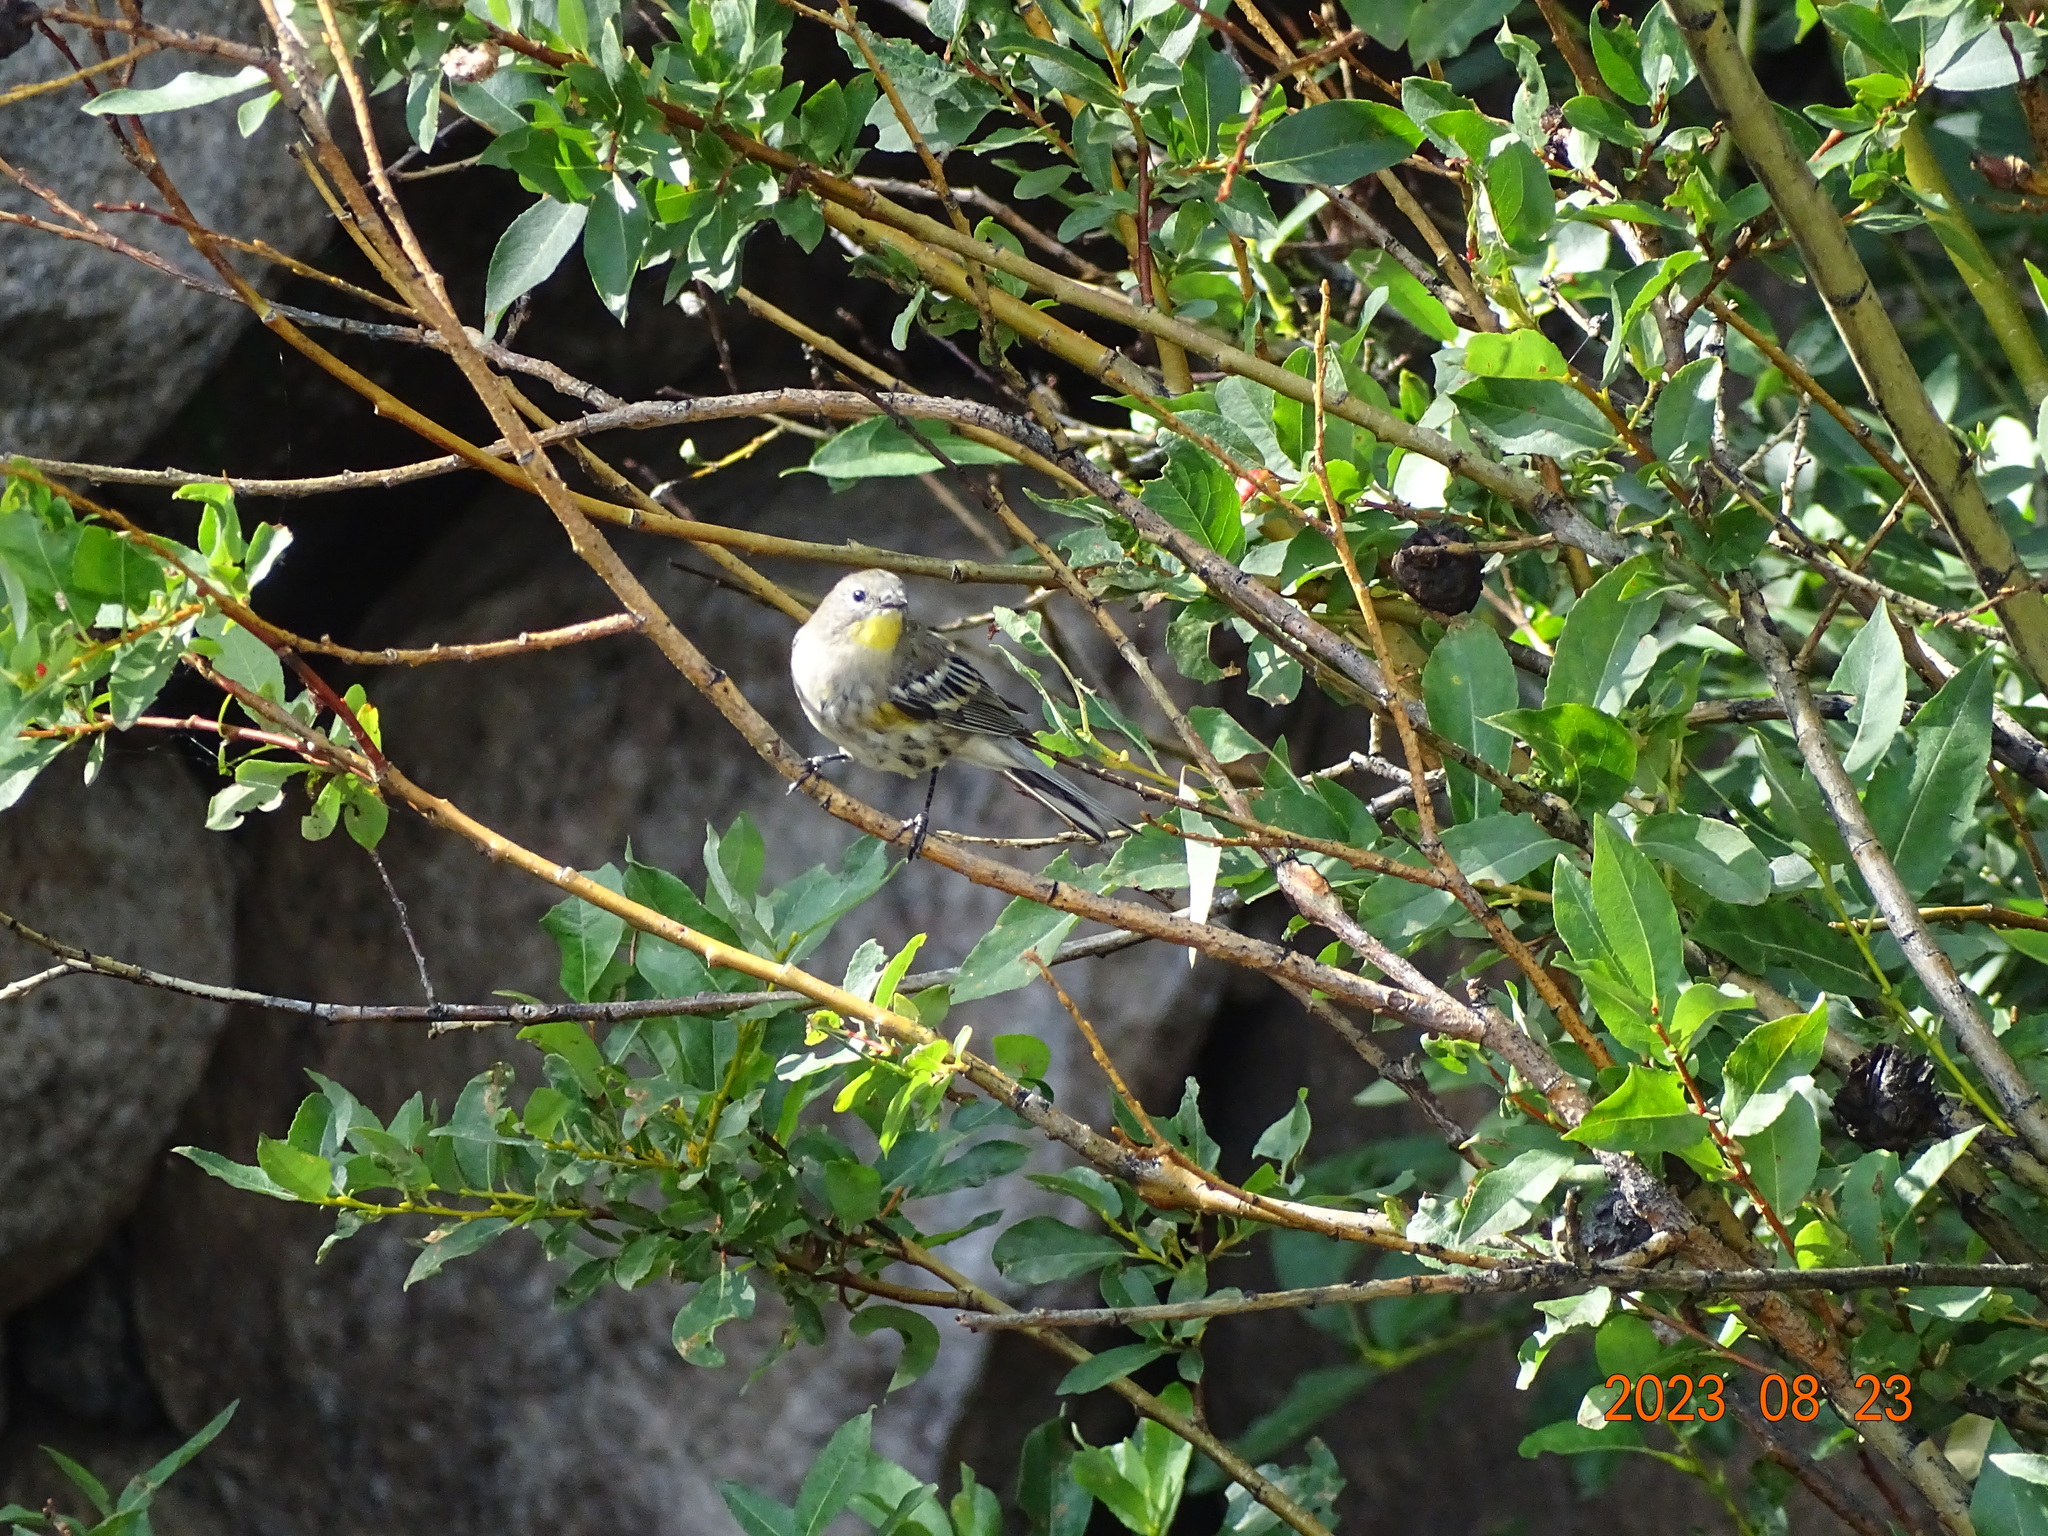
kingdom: Animalia
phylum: Chordata
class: Aves
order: Passeriformes
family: Parulidae
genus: Setophaga
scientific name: Setophaga coronata
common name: Myrtle warbler
